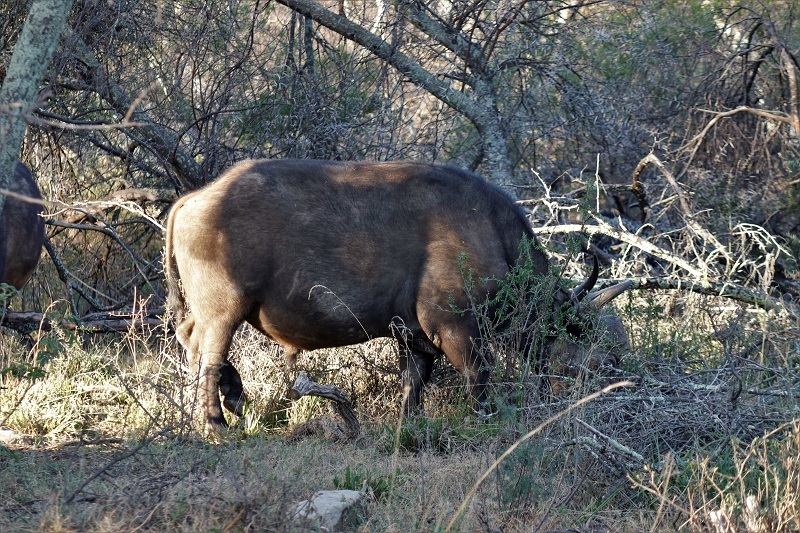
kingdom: Animalia
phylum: Chordata
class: Mammalia
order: Artiodactyla
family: Bovidae
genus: Syncerus
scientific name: Syncerus caffer
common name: African buffalo
